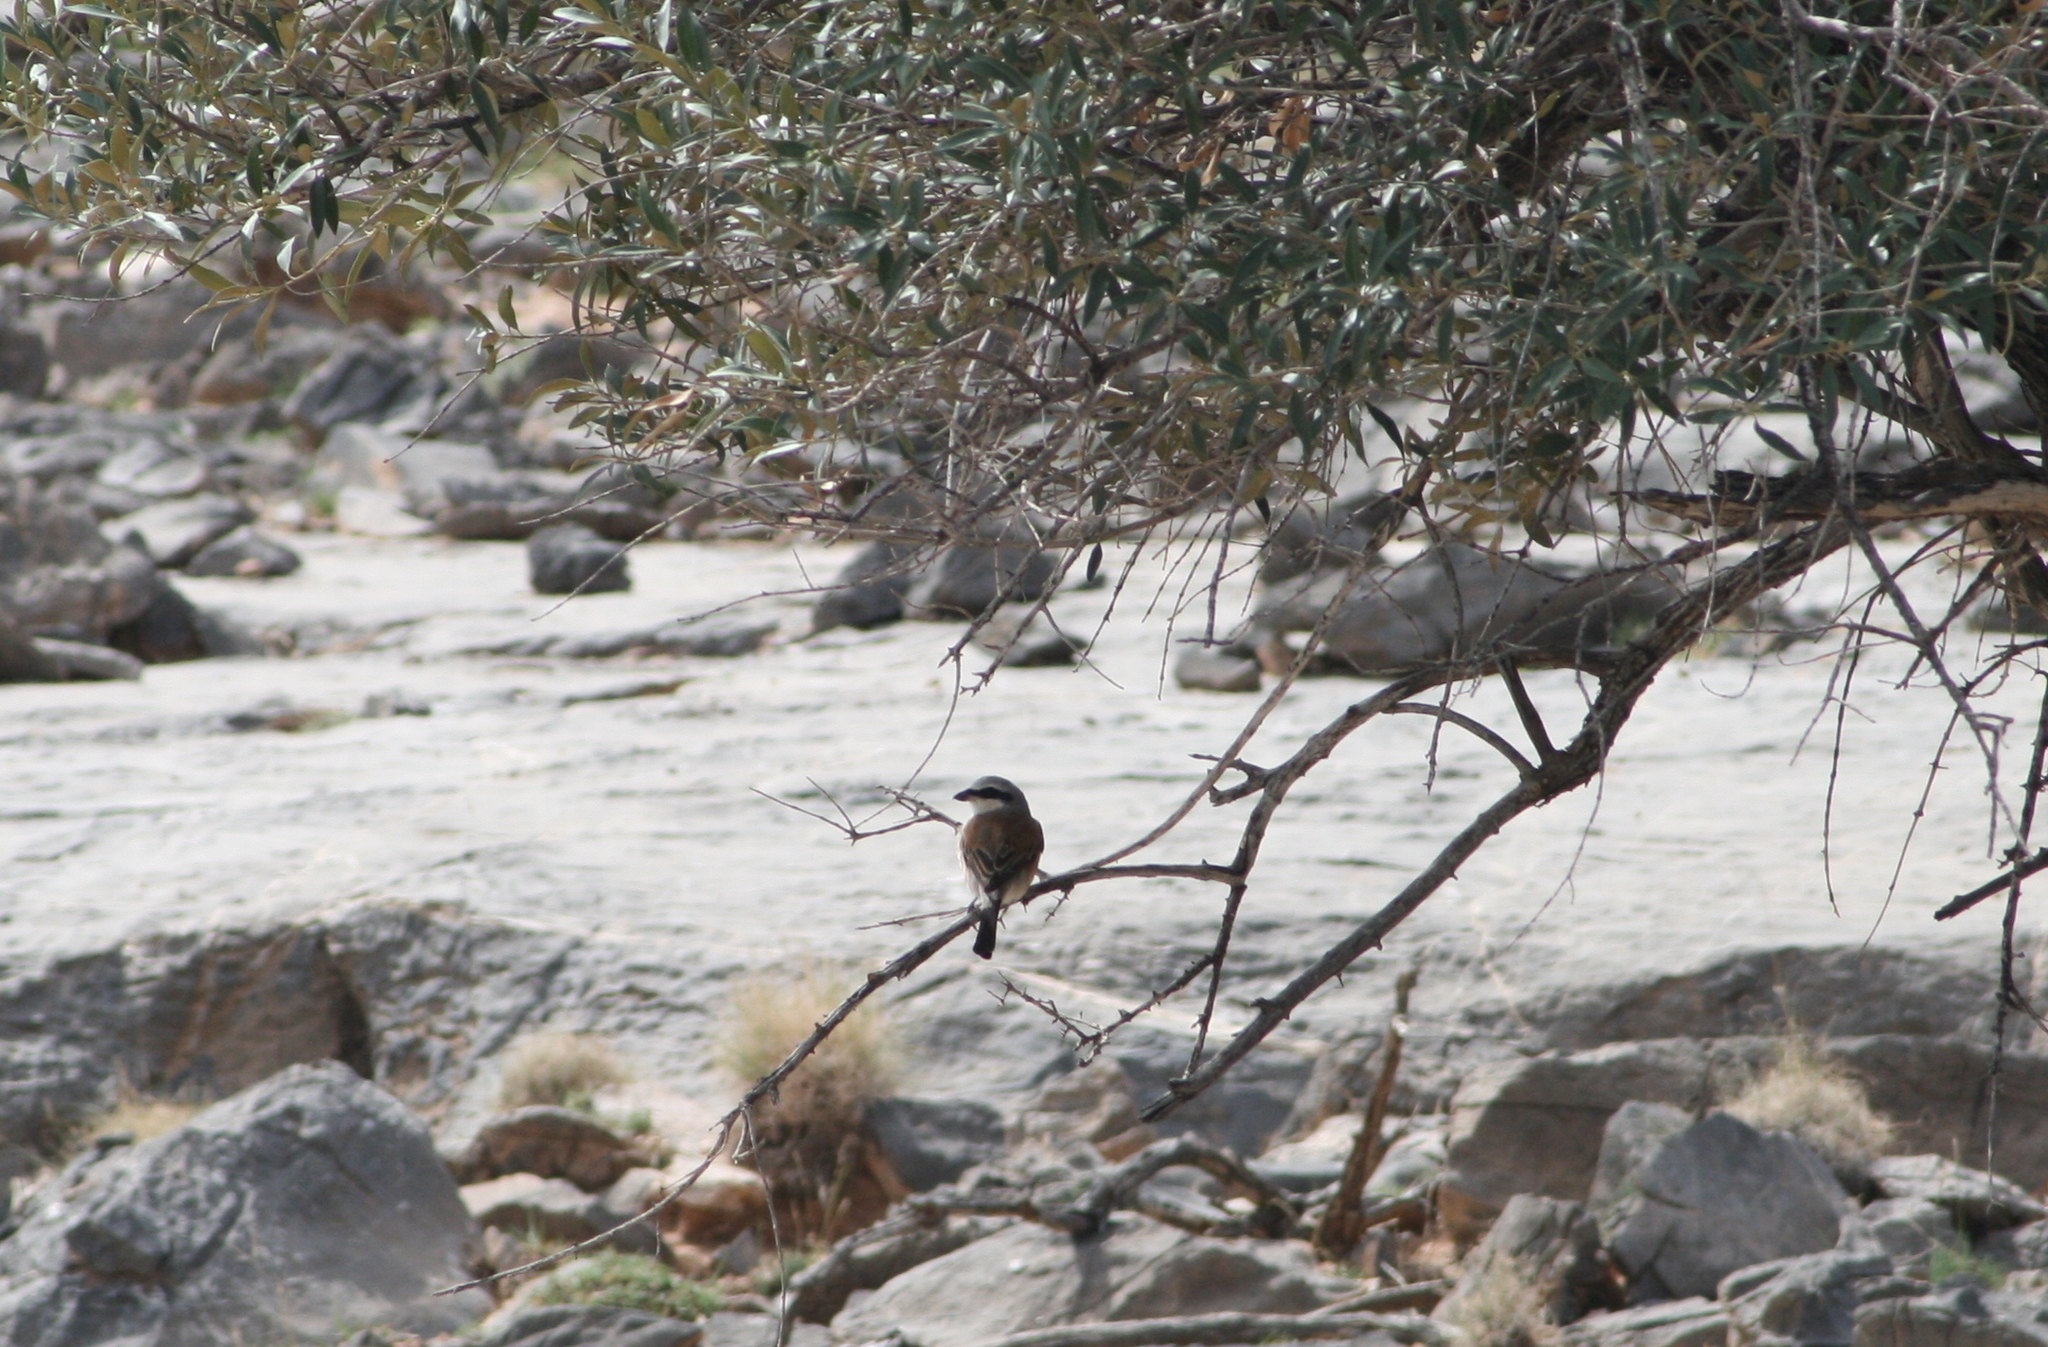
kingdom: Animalia
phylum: Chordata
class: Aves
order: Passeriformes
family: Laniidae
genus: Lanius
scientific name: Lanius collurio
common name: Red-backed shrike
